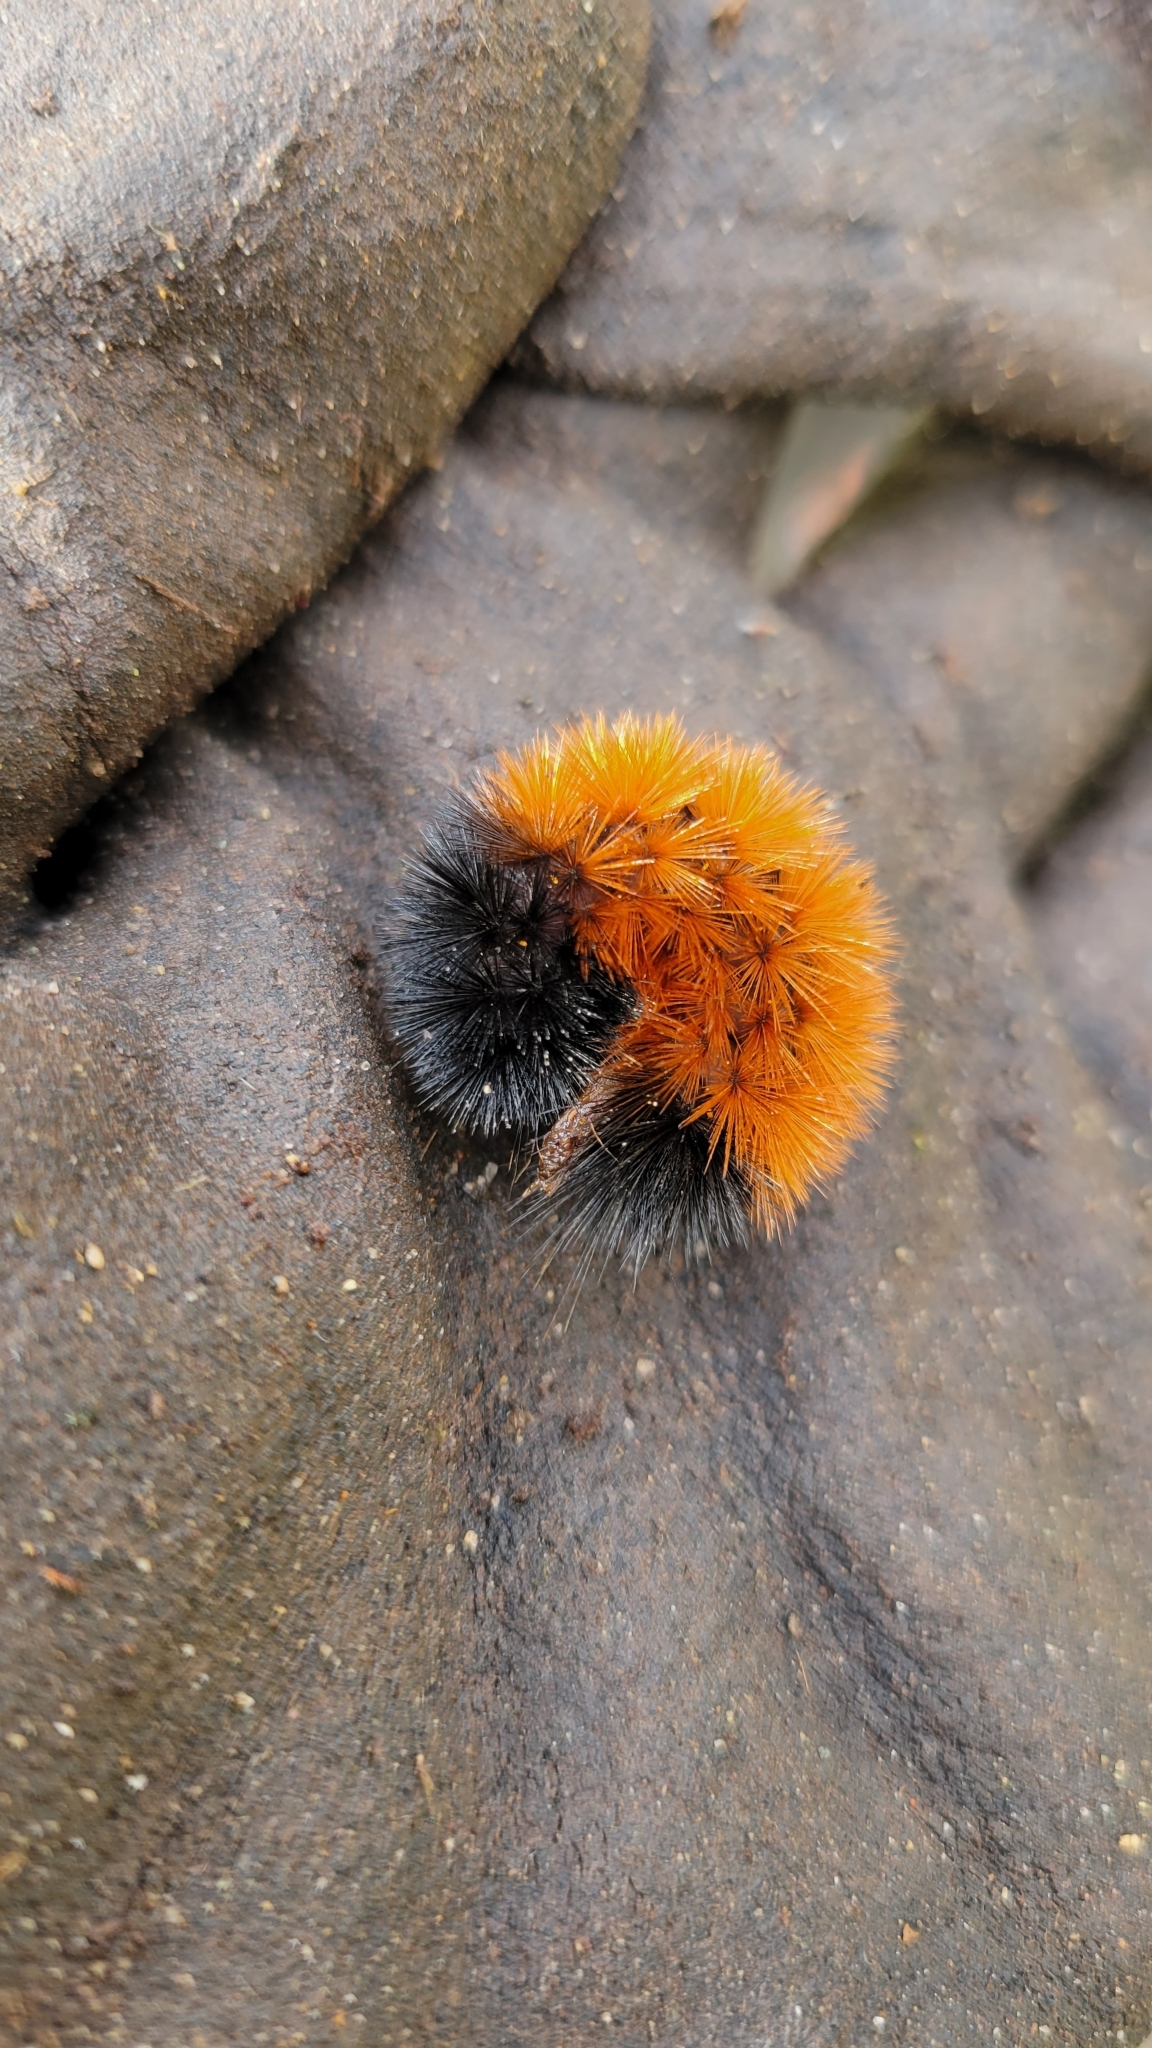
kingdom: Animalia
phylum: Arthropoda
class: Insecta
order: Lepidoptera
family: Erebidae
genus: Pyrrharctia
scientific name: Pyrrharctia isabella
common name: Isabella tiger moth
